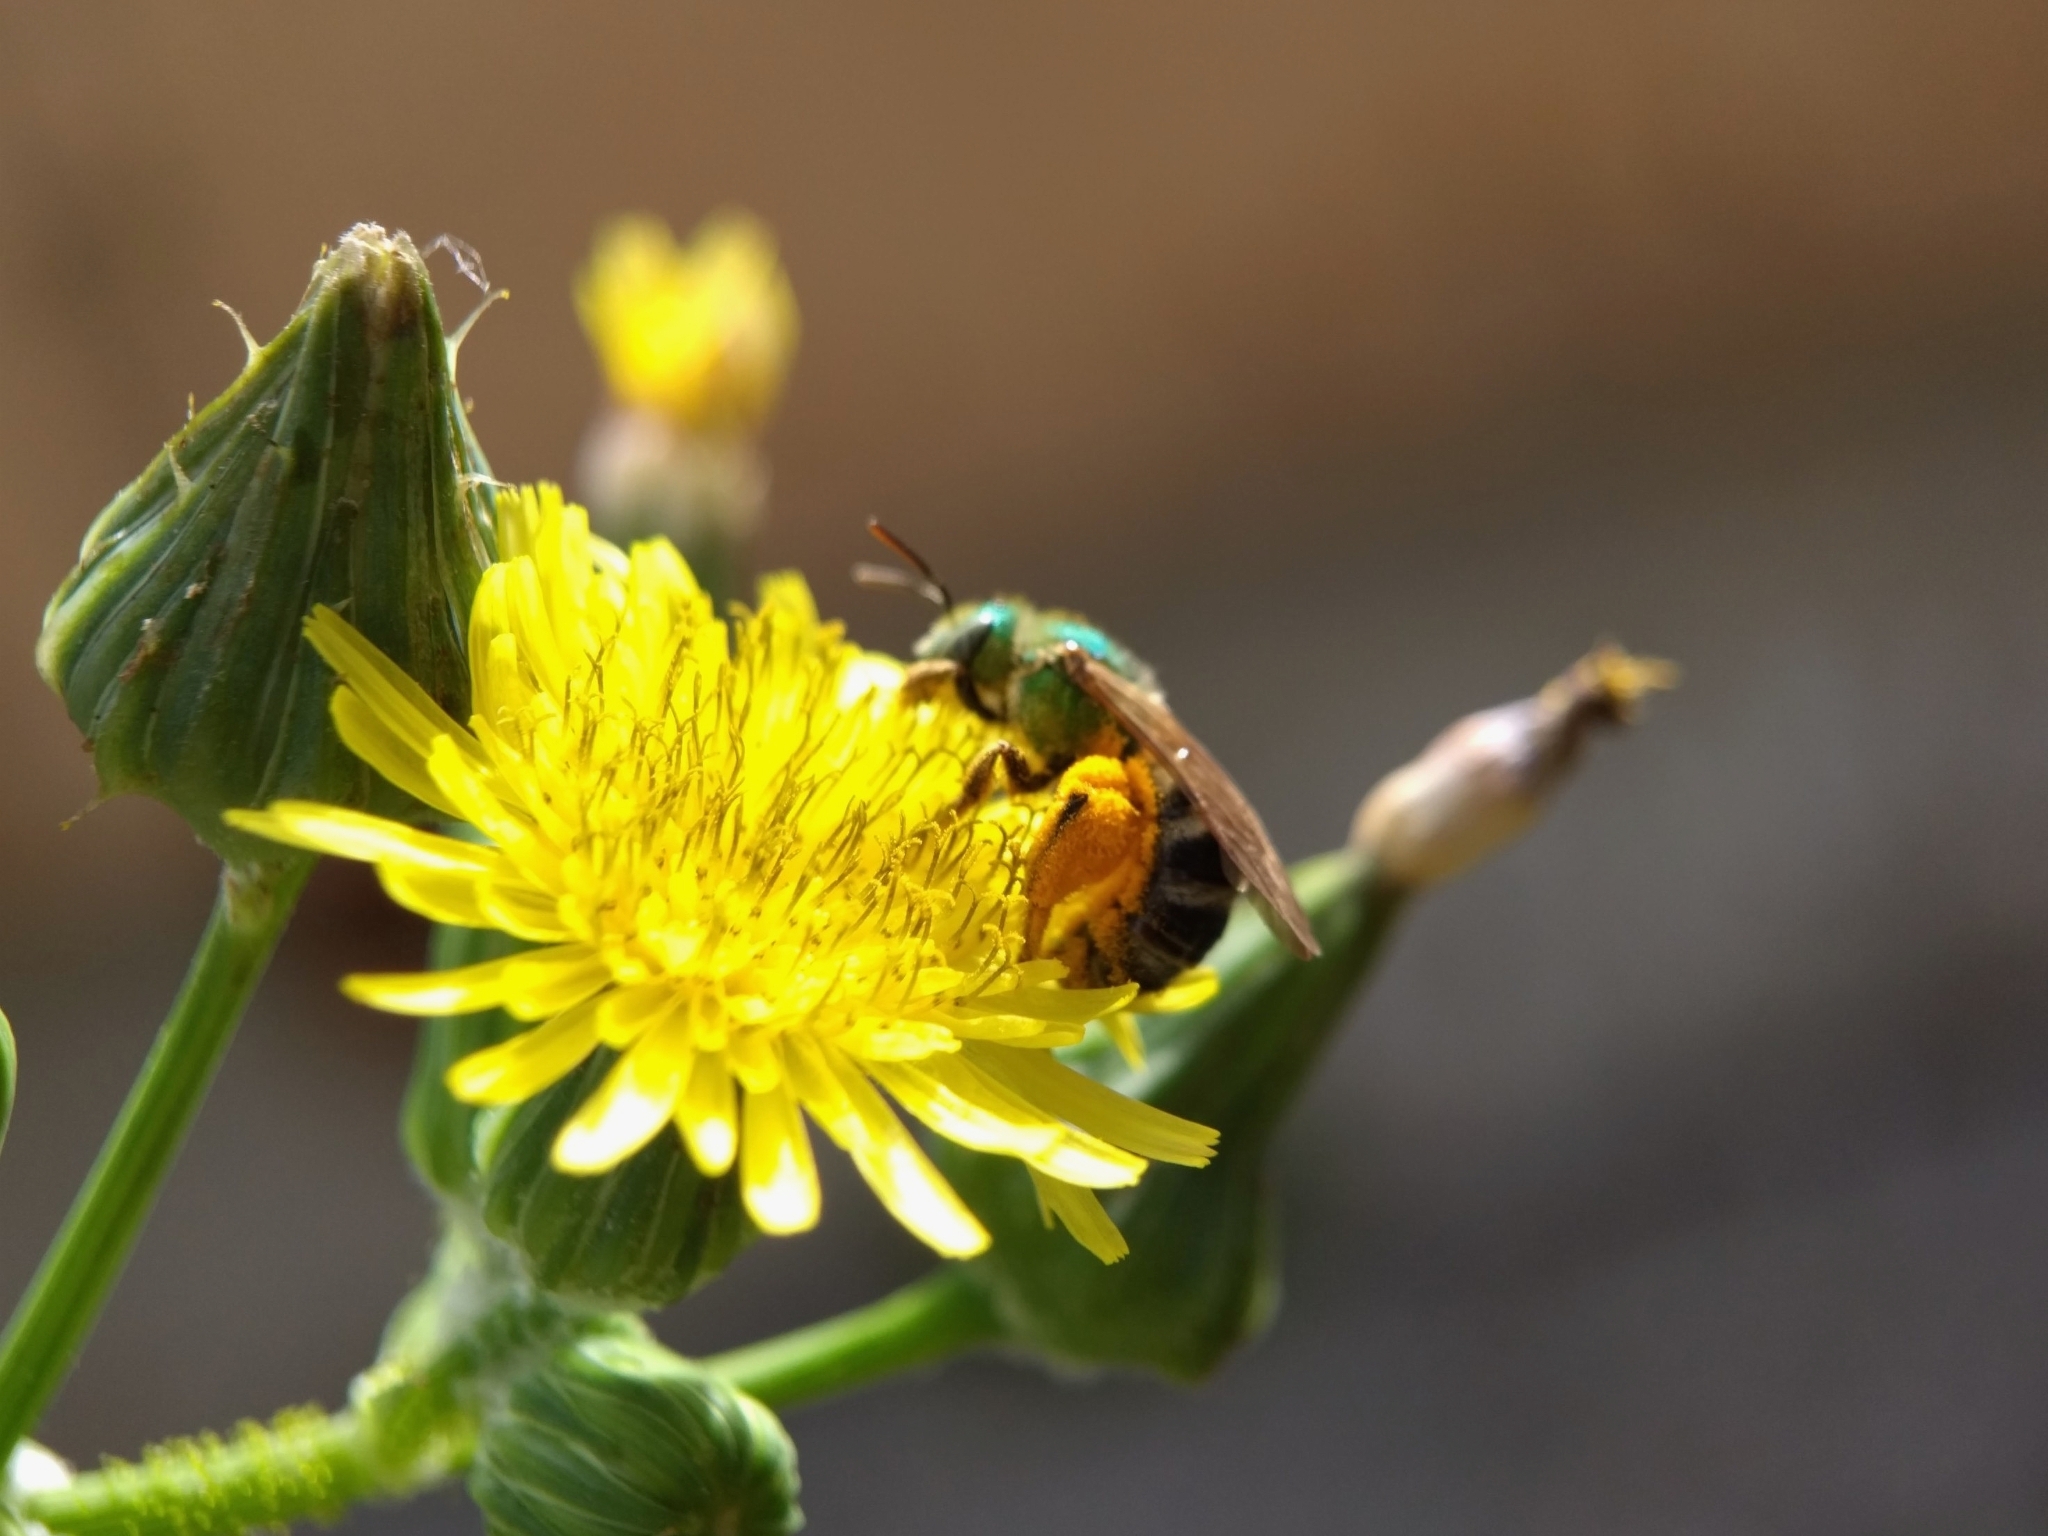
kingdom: Animalia
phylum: Arthropoda
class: Insecta
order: Hymenoptera
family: Halictidae
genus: Agapostemon
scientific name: Agapostemon virescens
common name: Bicolored striped sweat bee
